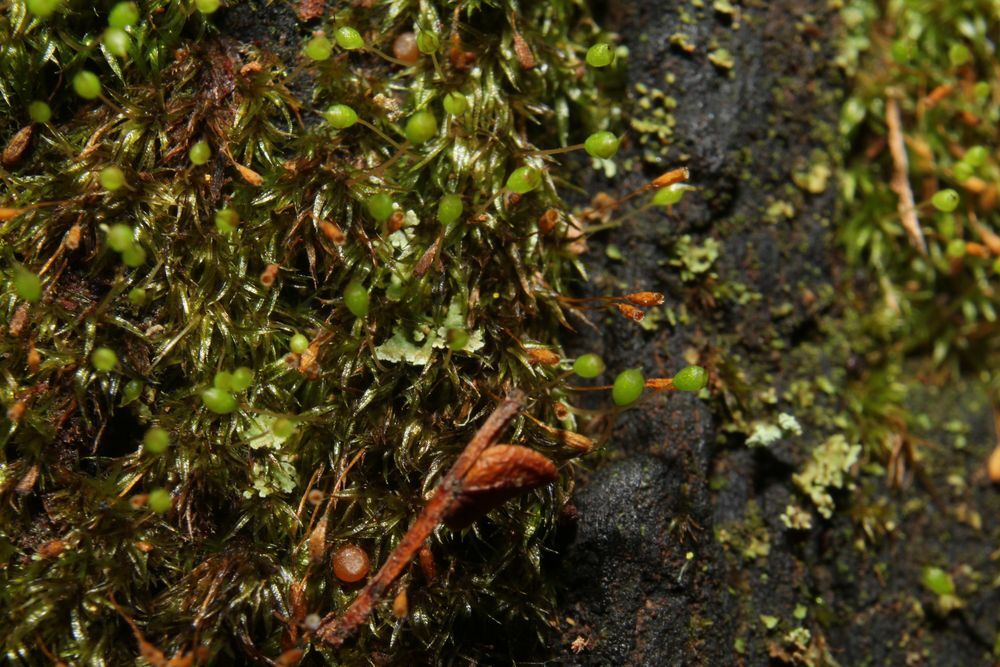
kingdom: Plantae
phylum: Bryophyta
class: Bryopsida
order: Orthodontiales
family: Orthodontiaceae
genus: Orthodontium
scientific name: Orthodontium lineare
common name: Cape thread-moss
